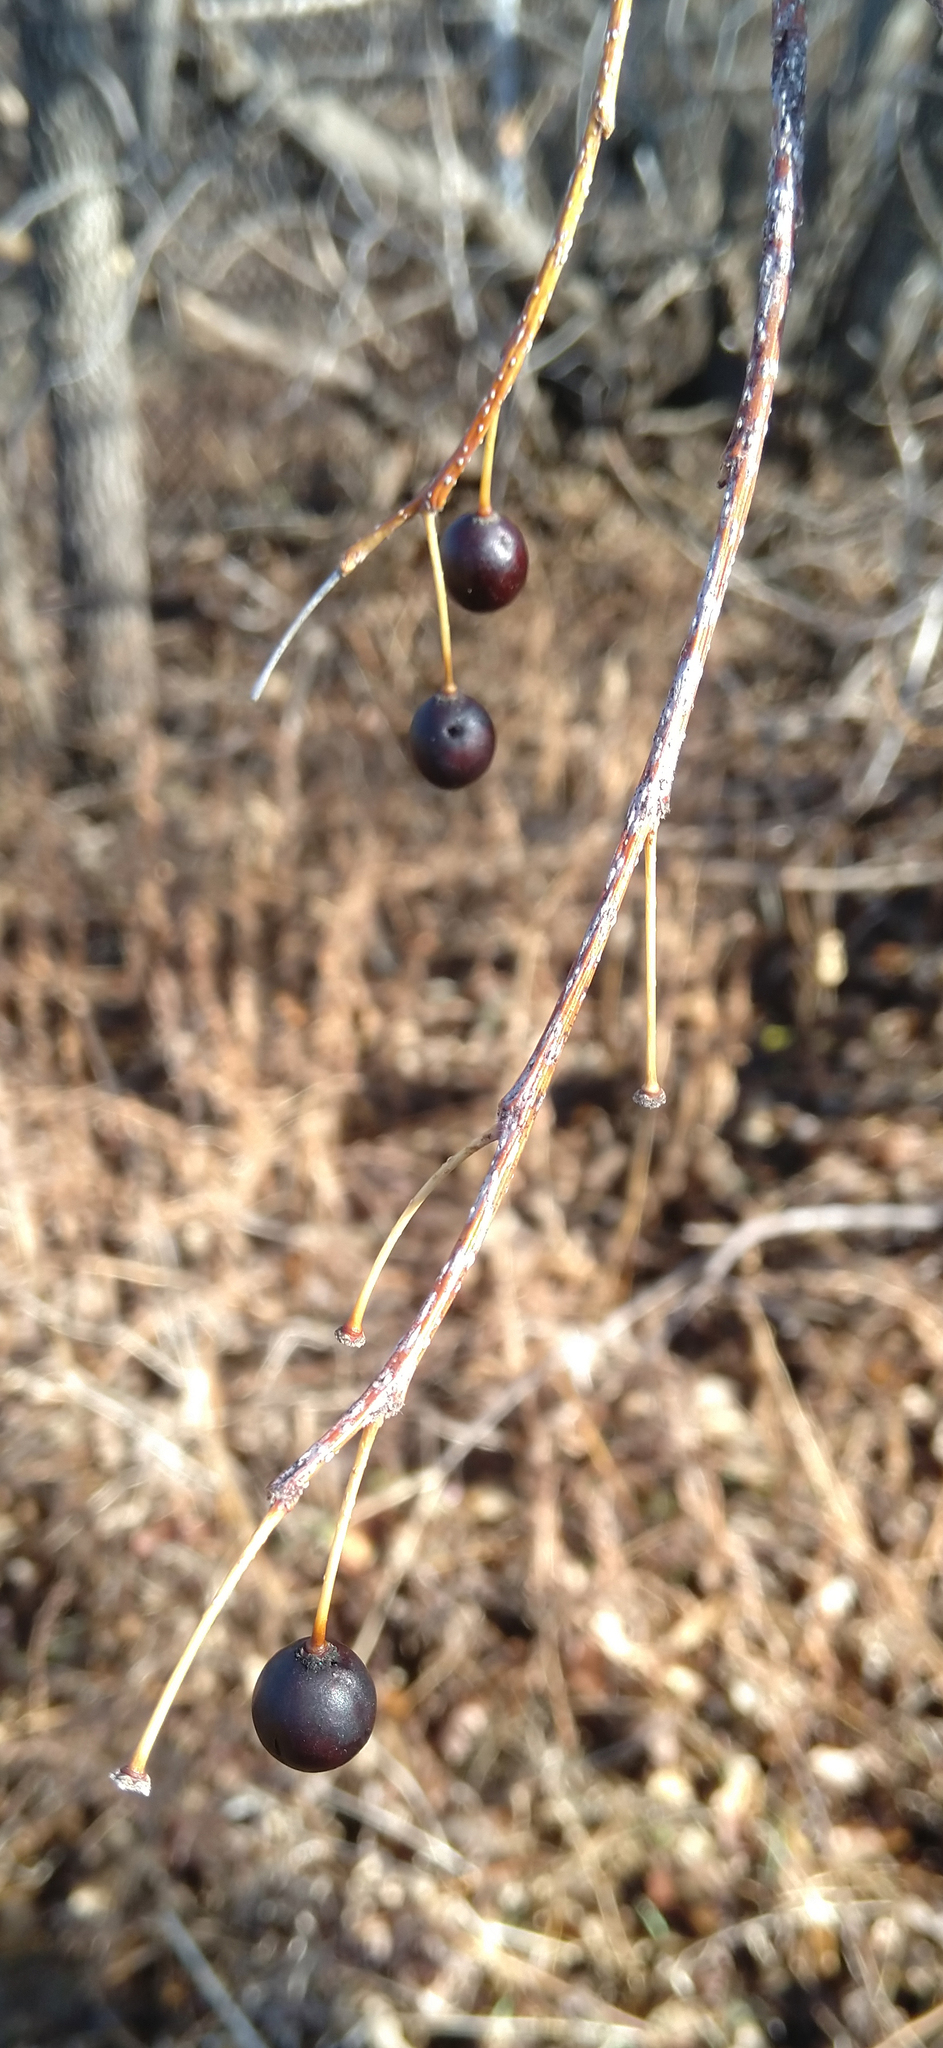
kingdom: Plantae
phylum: Tracheophyta
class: Magnoliopsida
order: Rosales
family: Cannabaceae
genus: Celtis
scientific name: Celtis occidentalis
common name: Common hackberry
